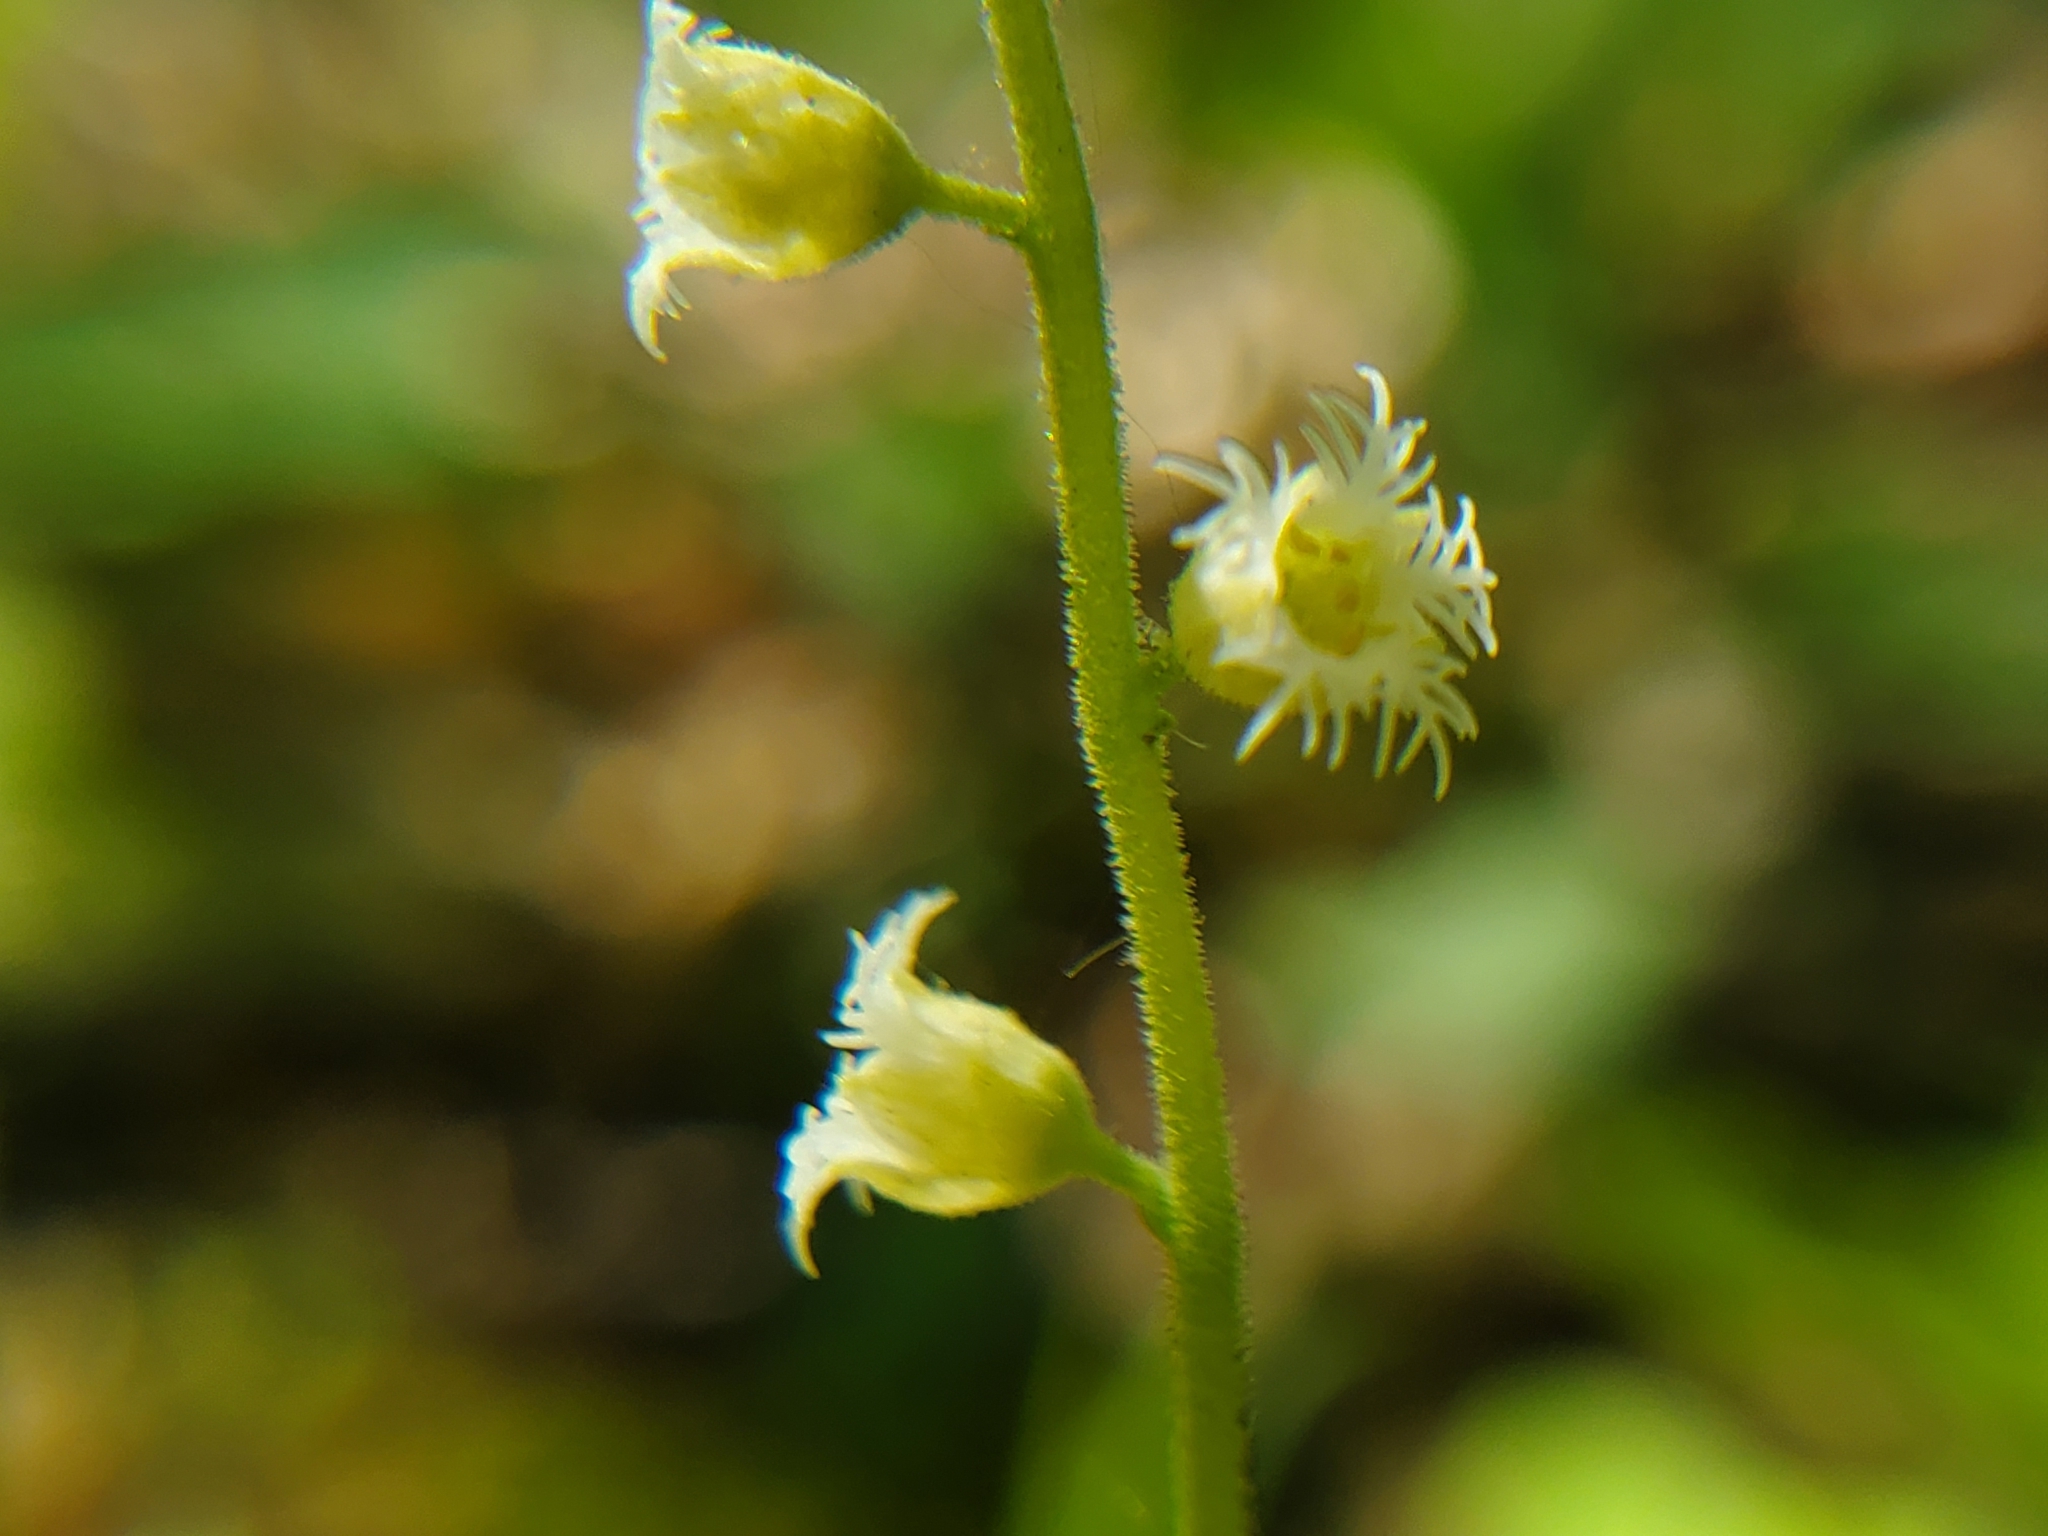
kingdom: Plantae
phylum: Tracheophyta
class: Magnoliopsida
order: Saxifragales
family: Saxifragaceae
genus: Mitella
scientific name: Mitella diphylla
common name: Coolwort
